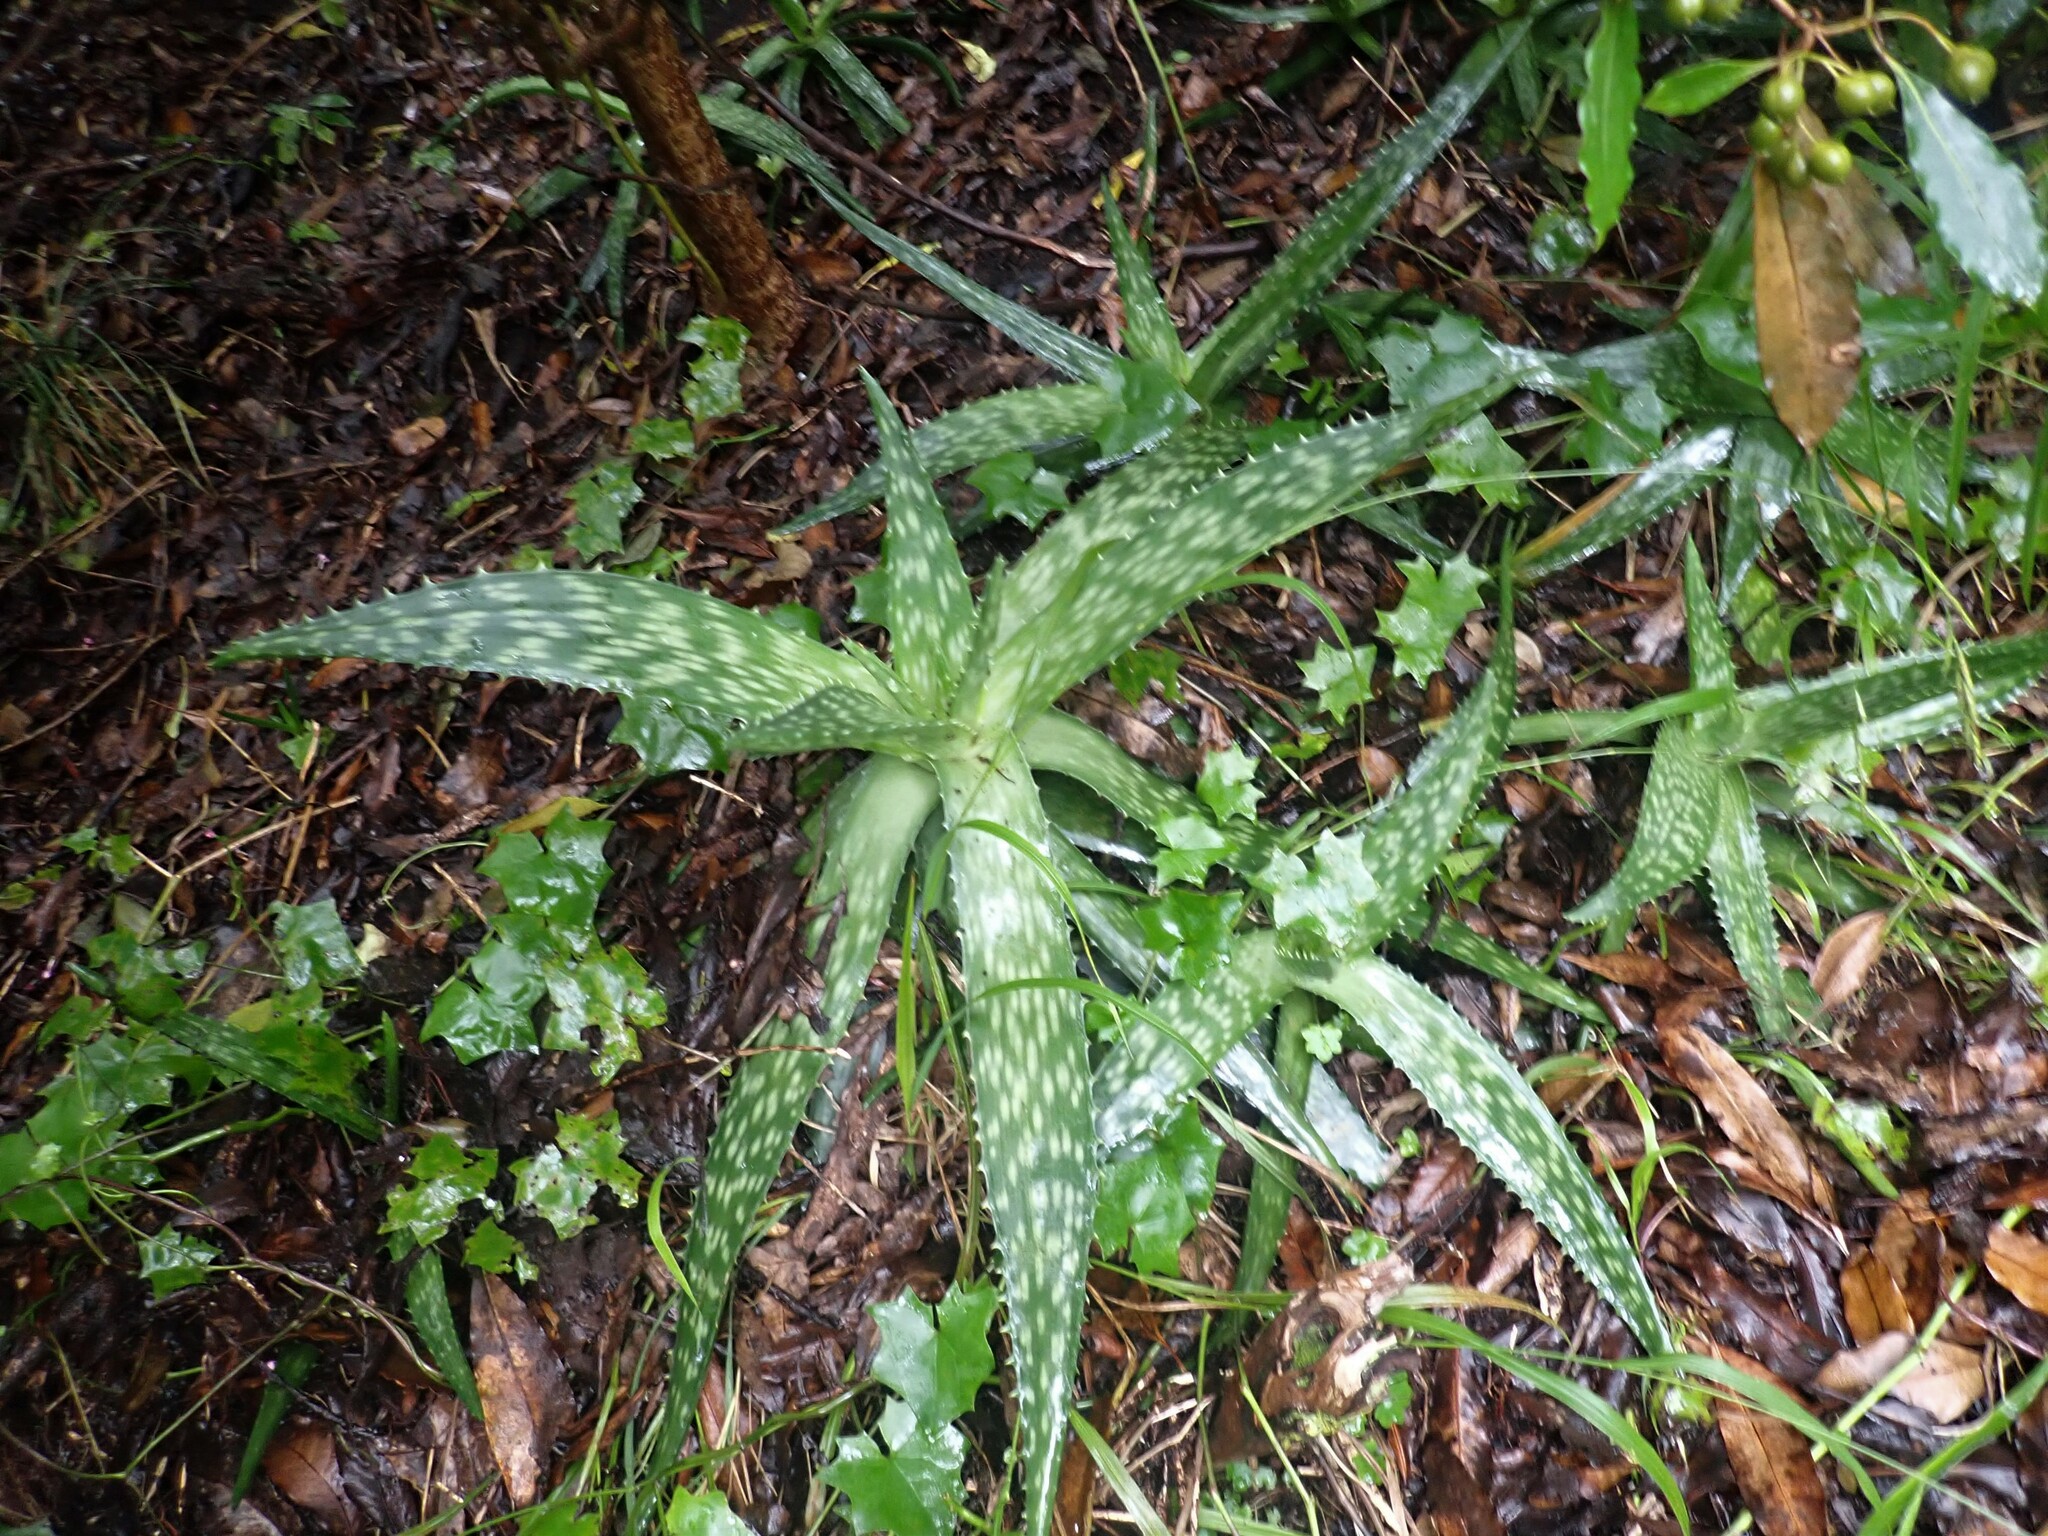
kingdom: Plantae
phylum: Tracheophyta
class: Liliopsida
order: Asparagales
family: Asphodelaceae
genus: Aloe
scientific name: Aloe maculata
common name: Broadleaf aloe
